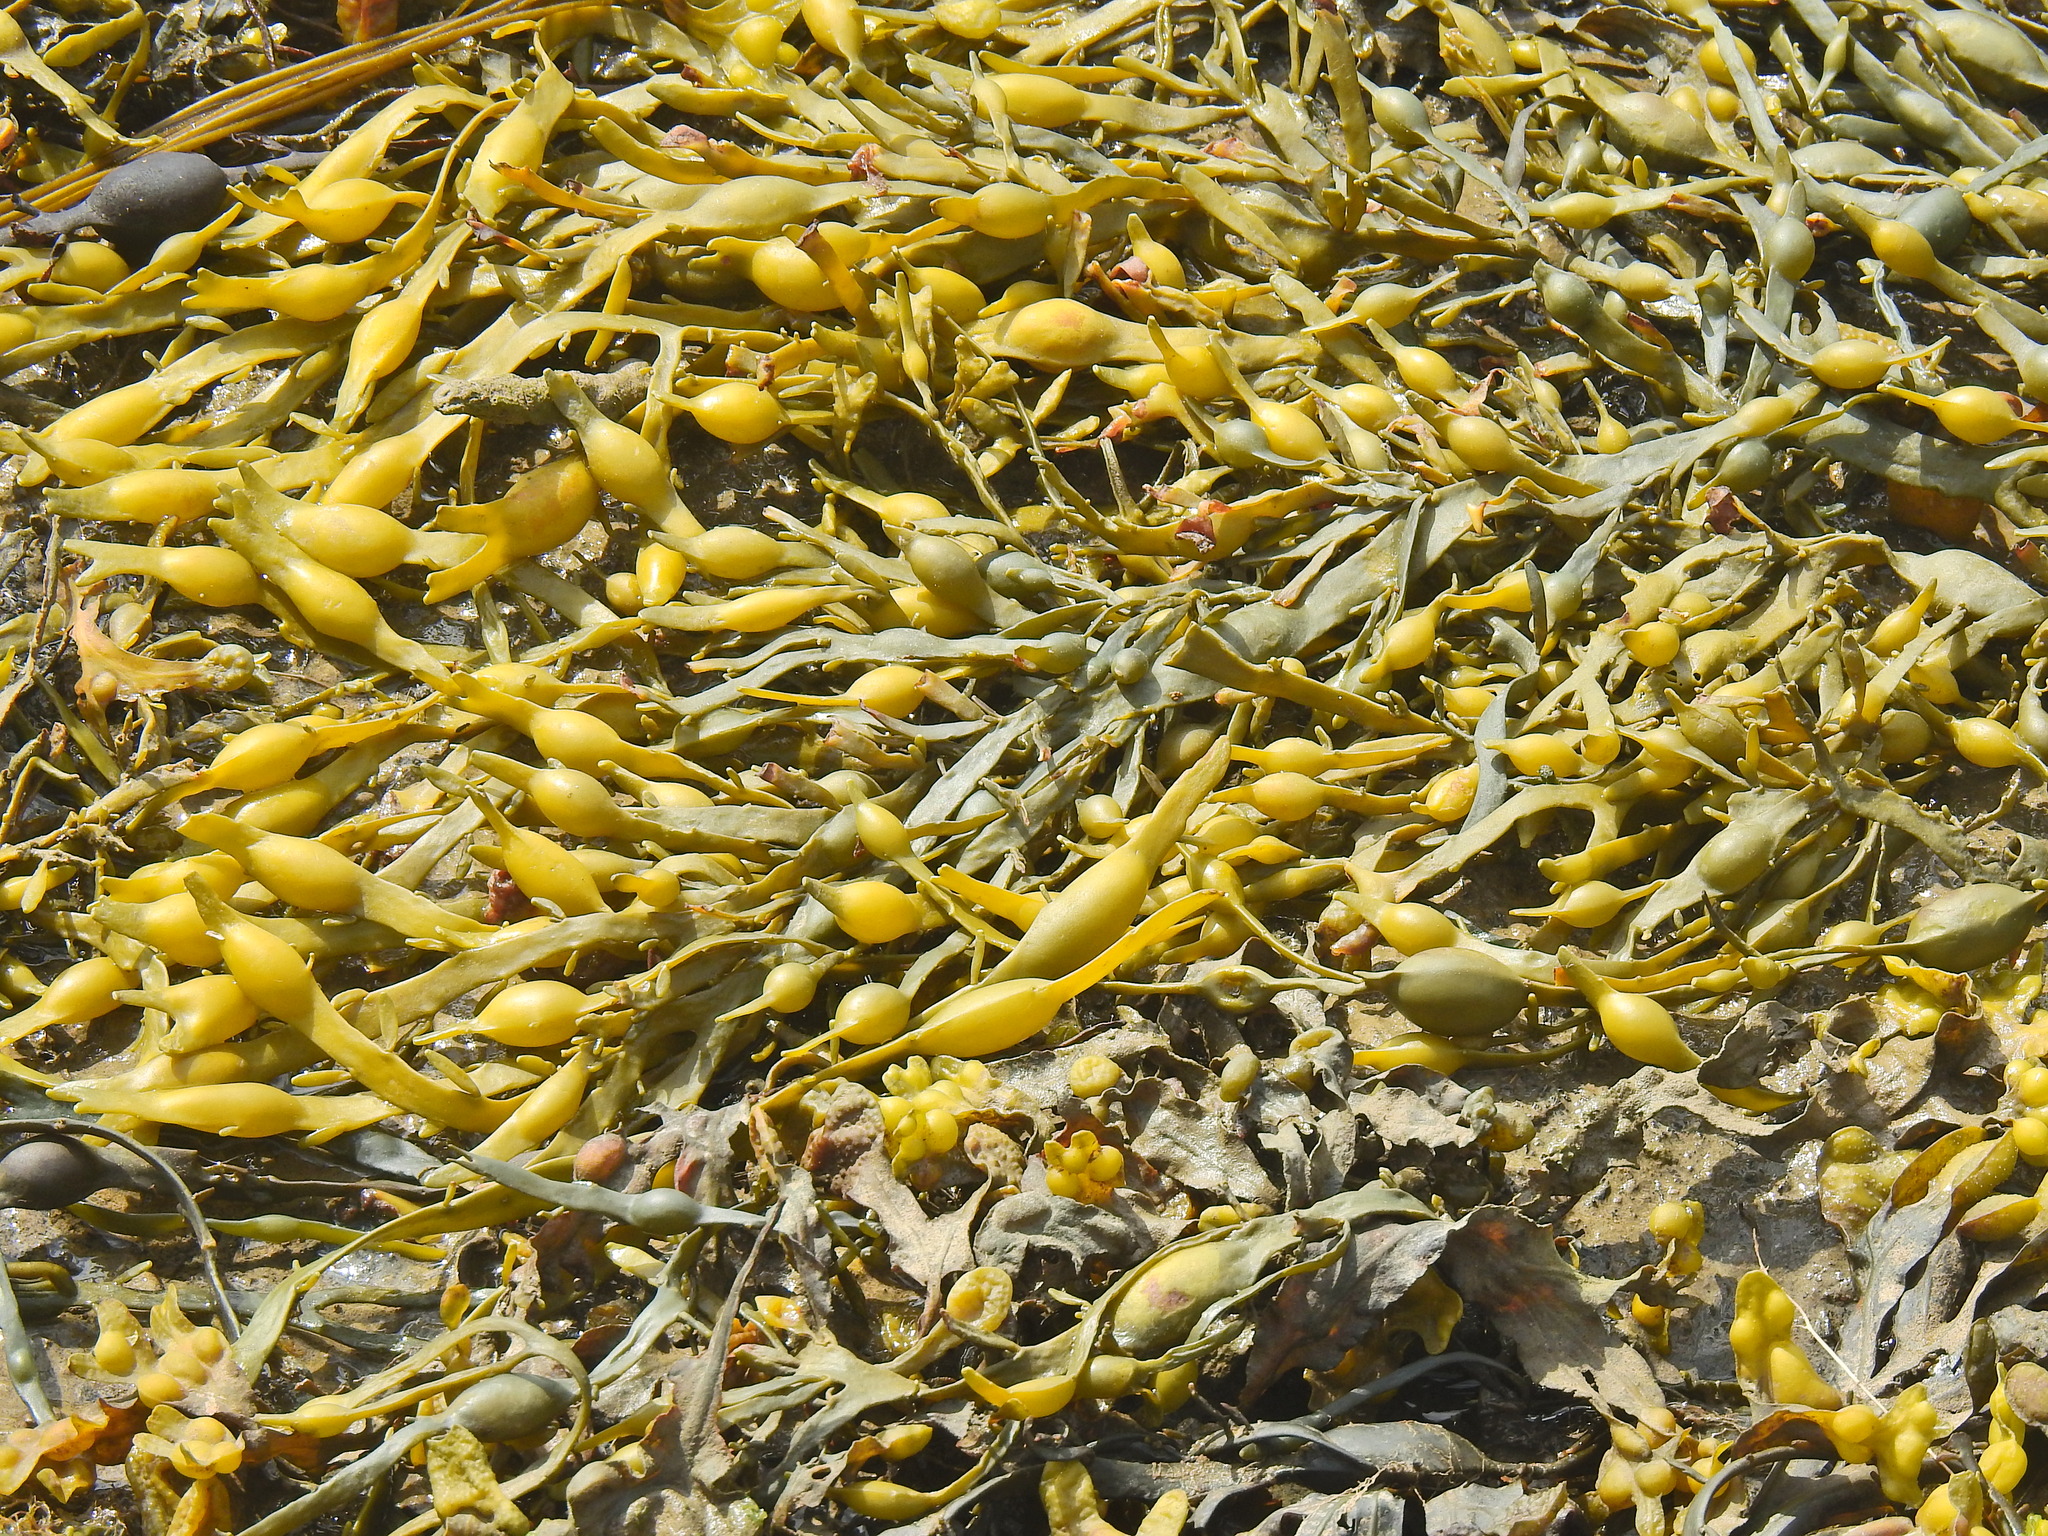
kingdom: Chromista
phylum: Ochrophyta
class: Phaeophyceae
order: Fucales
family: Fucaceae
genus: Ascophyllum
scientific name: Ascophyllum nodosum
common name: Knotted wrack
